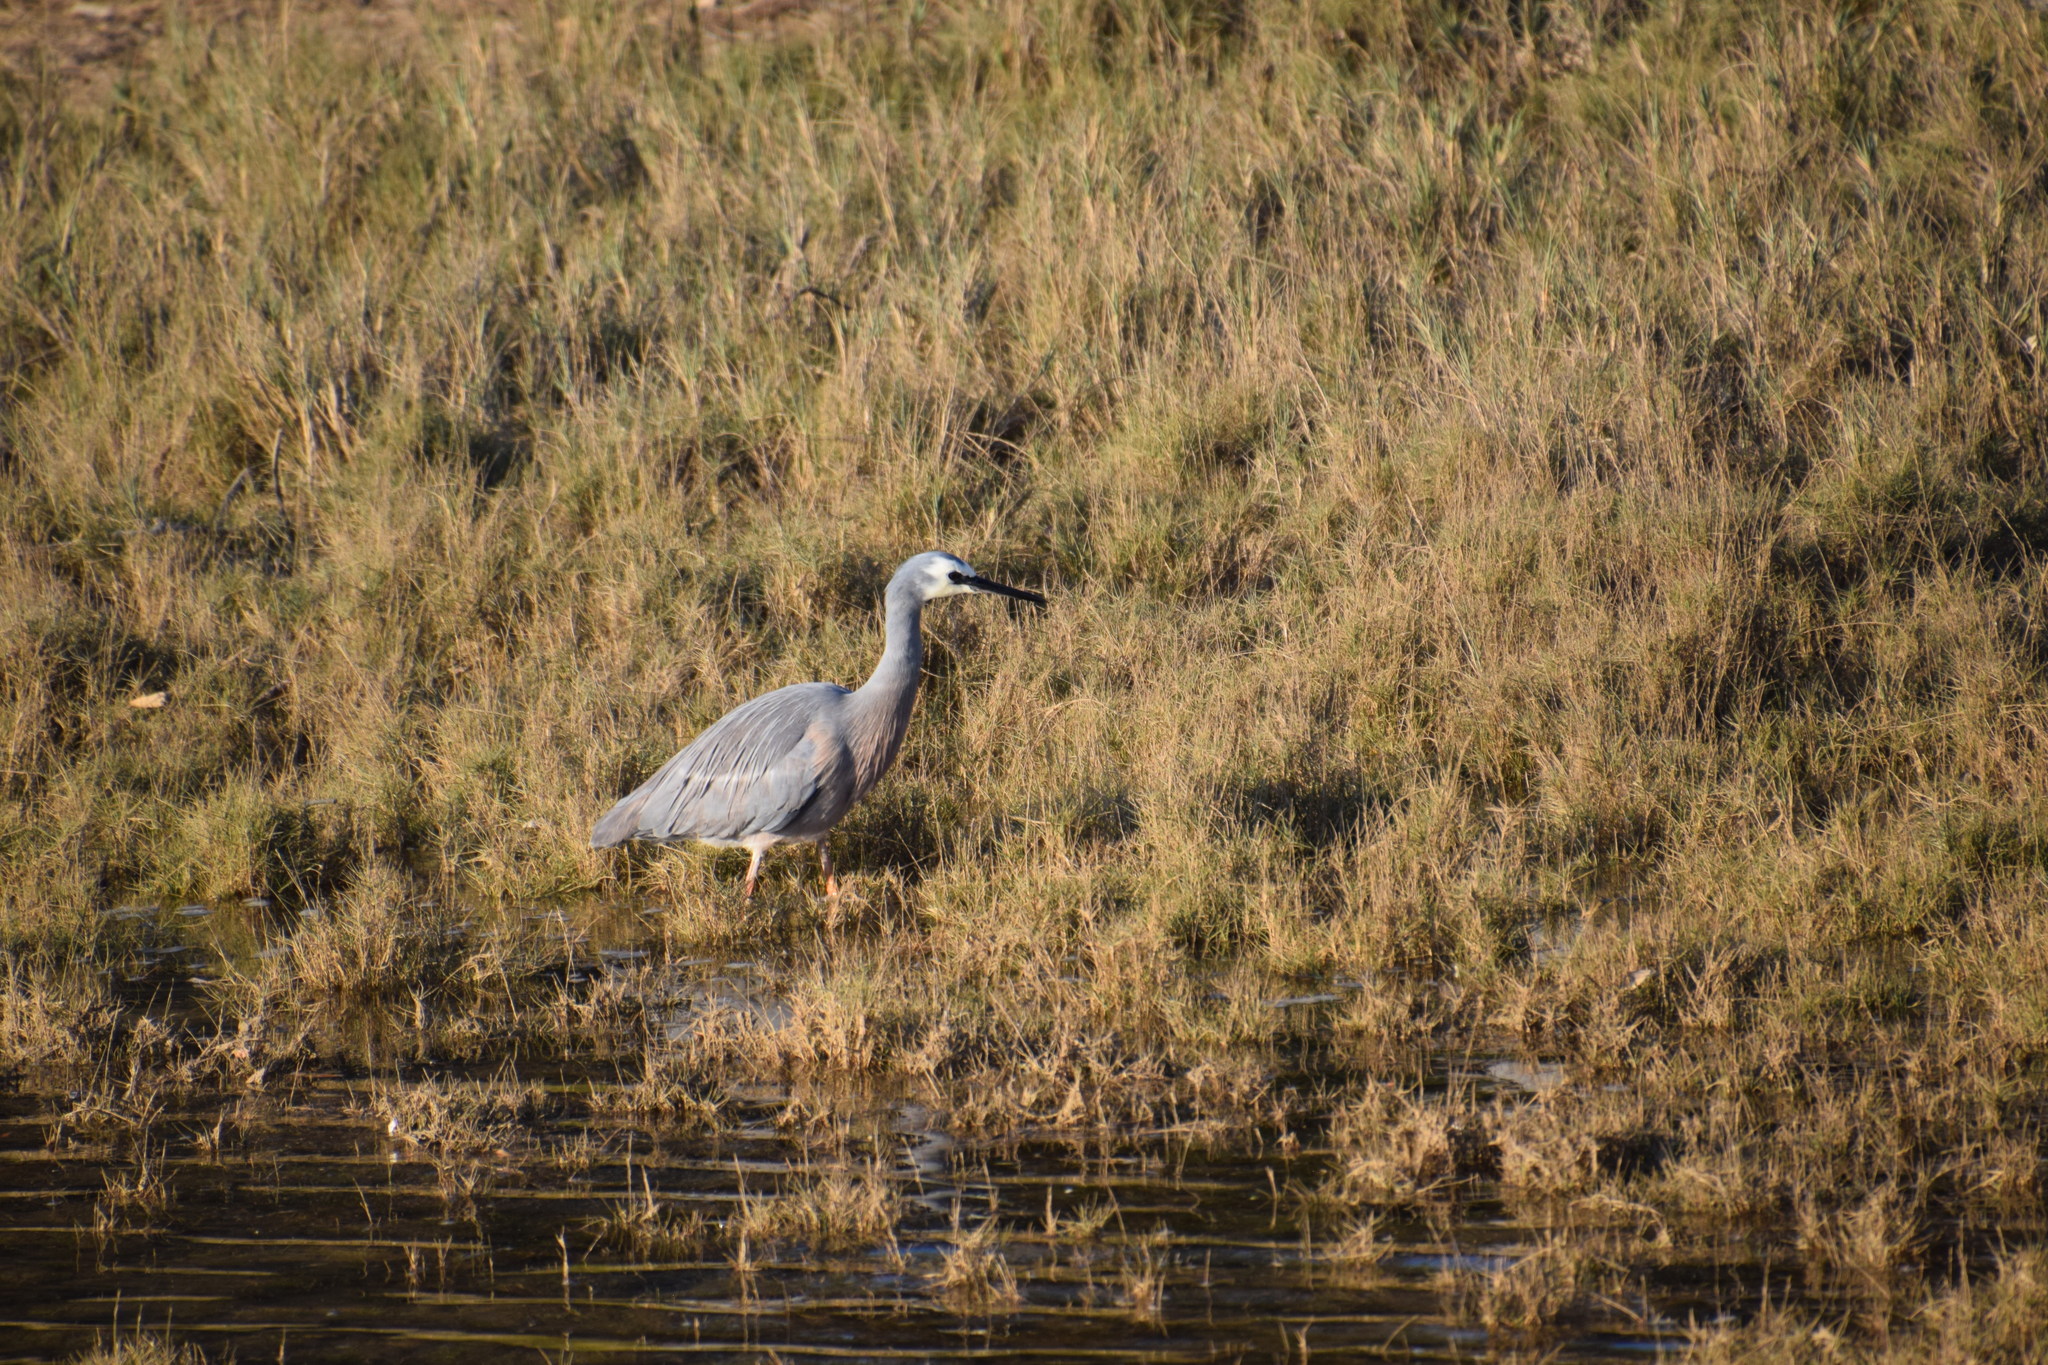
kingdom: Animalia
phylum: Chordata
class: Aves
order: Pelecaniformes
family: Ardeidae
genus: Egretta
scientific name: Egretta novaehollandiae
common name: White-faced heron
